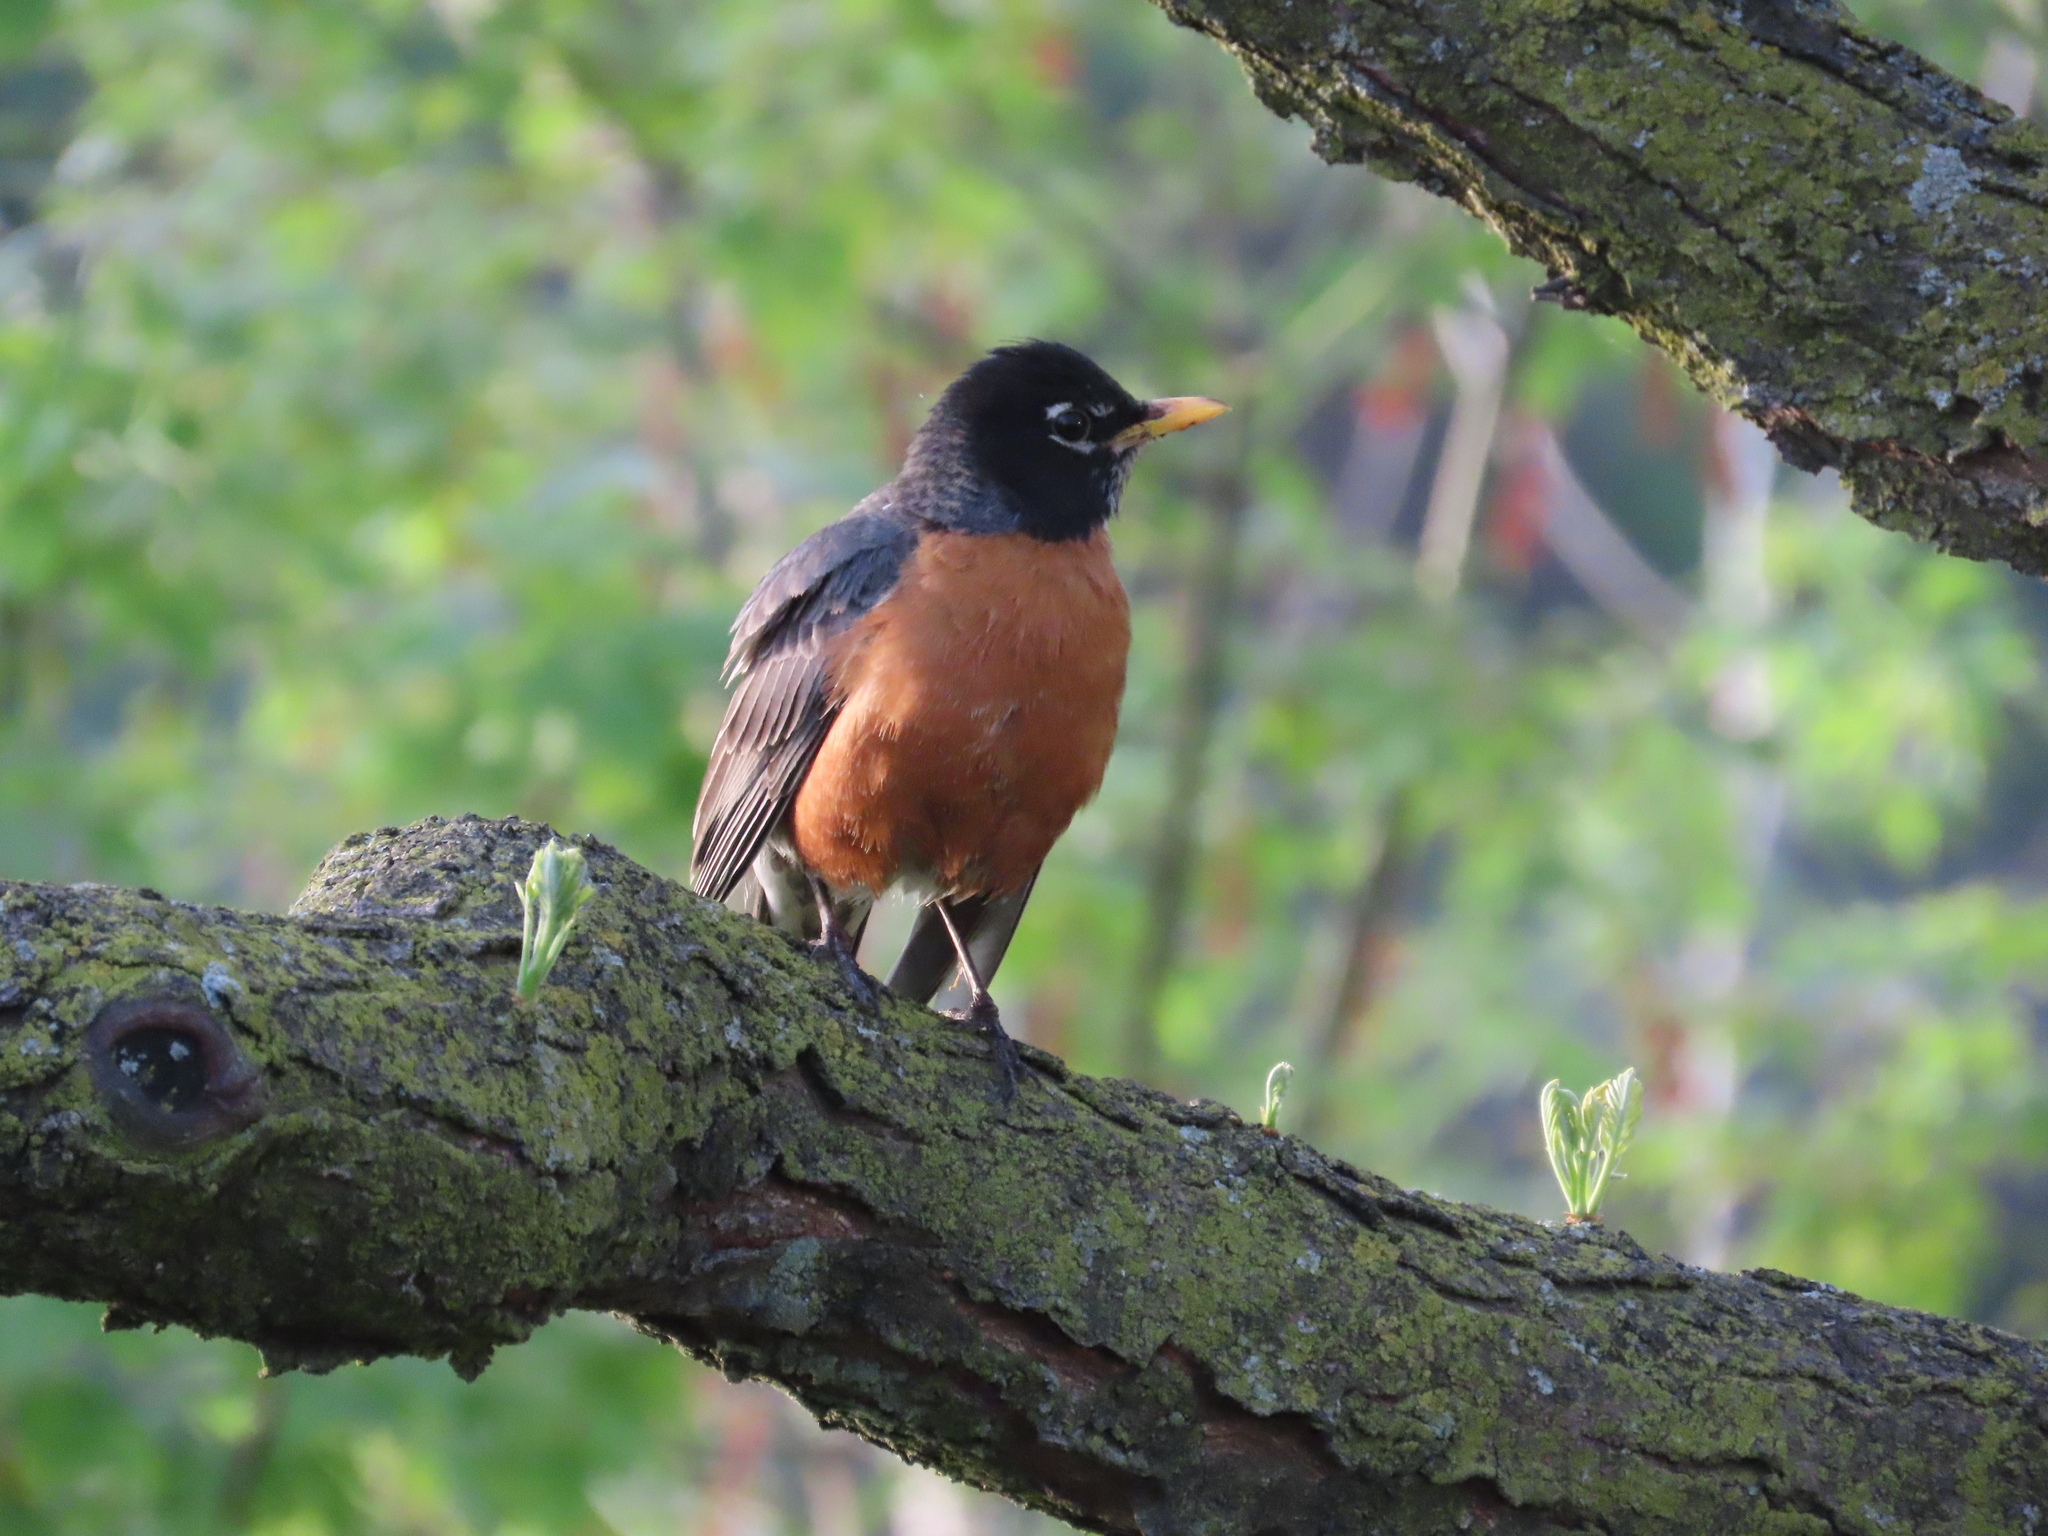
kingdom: Animalia
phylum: Chordata
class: Aves
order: Passeriformes
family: Turdidae
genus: Turdus
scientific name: Turdus migratorius
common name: American robin
